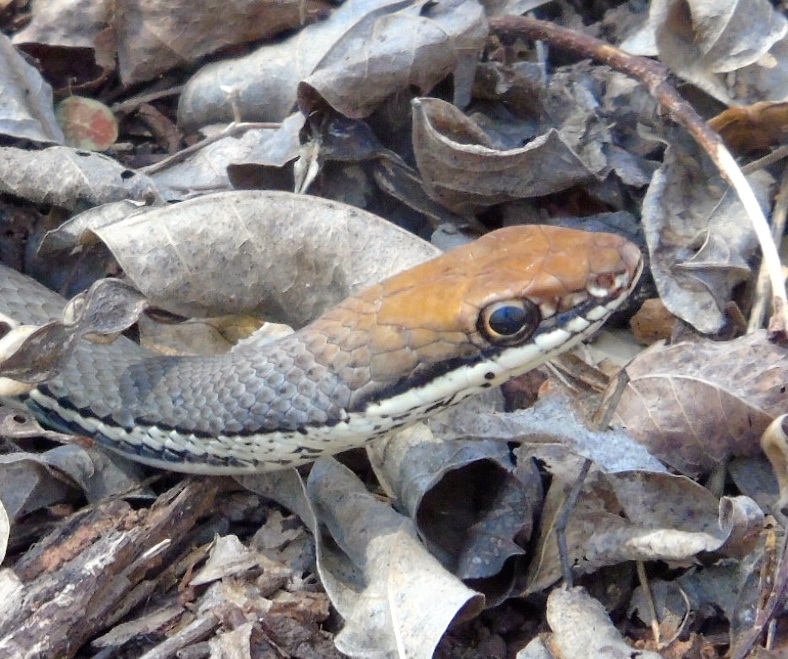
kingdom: Animalia
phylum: Chordata
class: Squamata
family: Colubridae
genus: Masticophis
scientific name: Masticophis bilineatus
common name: Sonoran whipsnake
